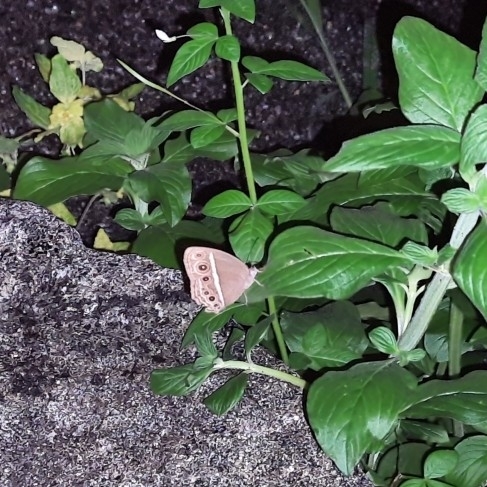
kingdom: Animalia
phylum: Arthropoda
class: Insecta
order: Lepidoptera
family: Nymphalidae
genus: Mycalesis
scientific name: Mycalesis mineus
